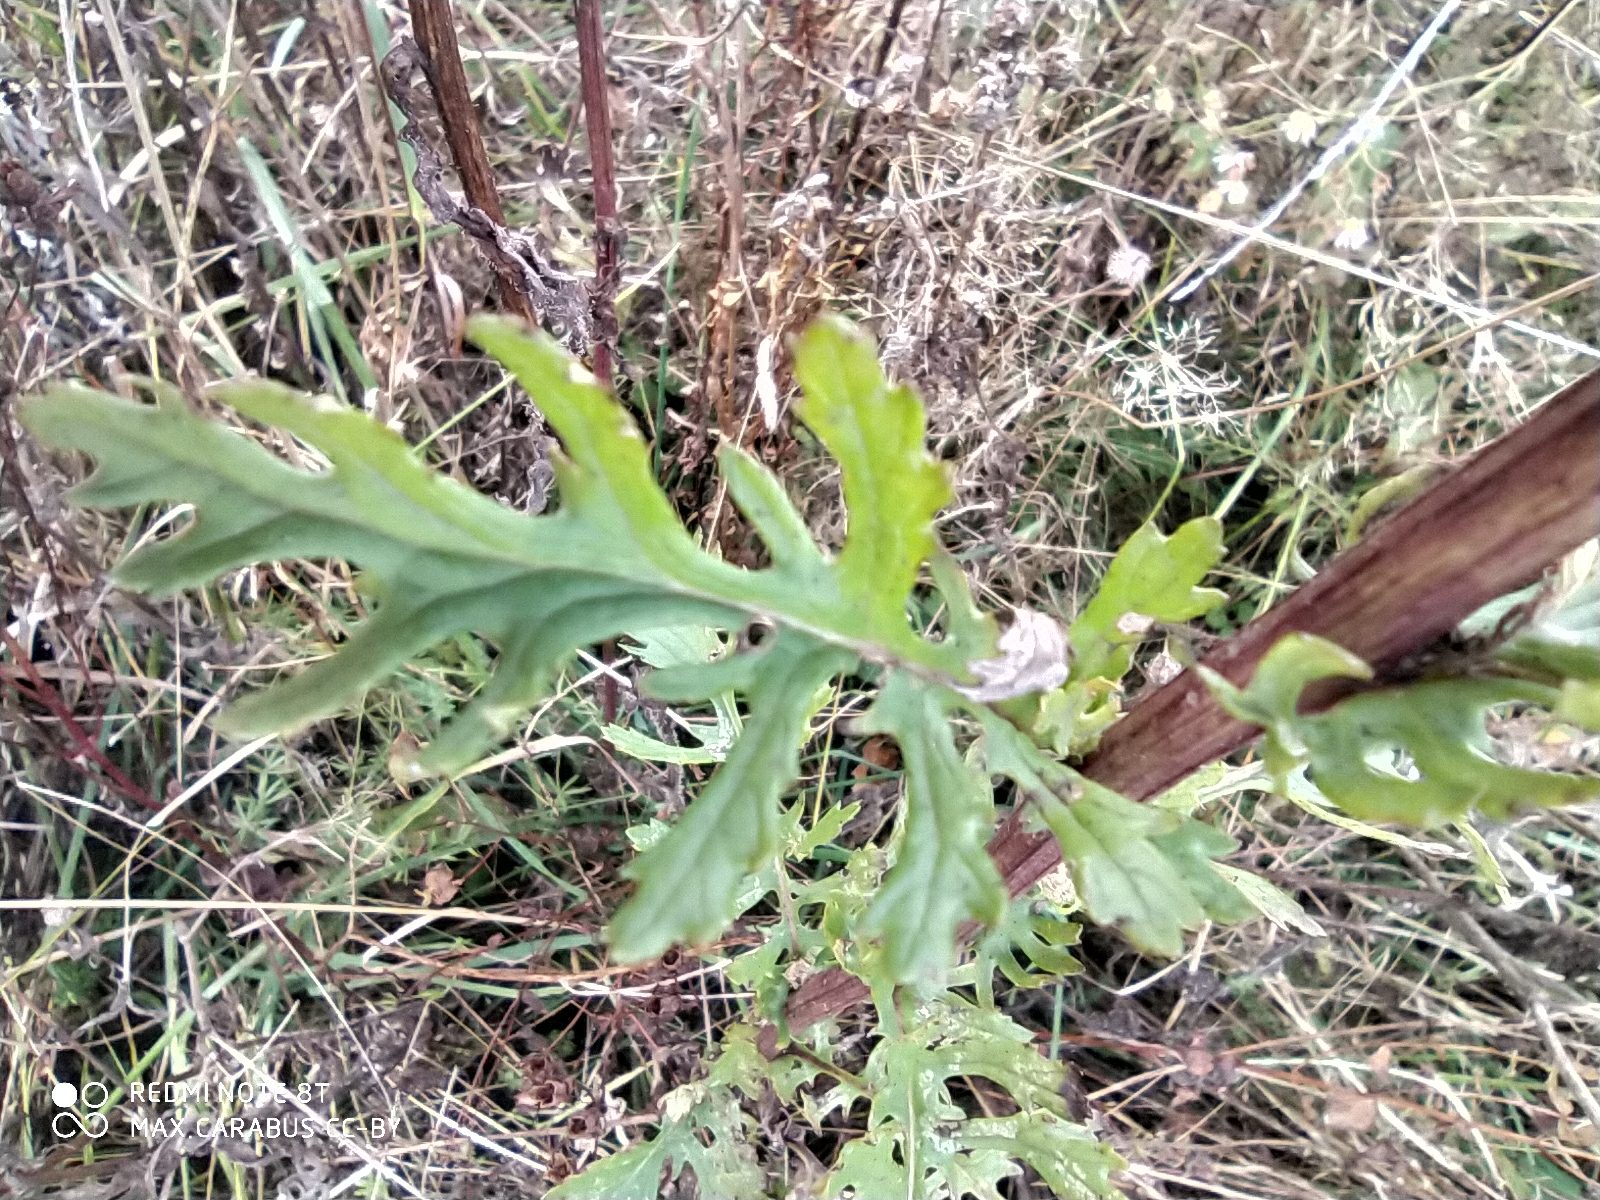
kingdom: Plantae
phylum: Tracheophyta
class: Magnoliopsida
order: Asterales
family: Asteraceae
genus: Jacobaea
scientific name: Jacobaea vulgaris
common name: Stinking willie
